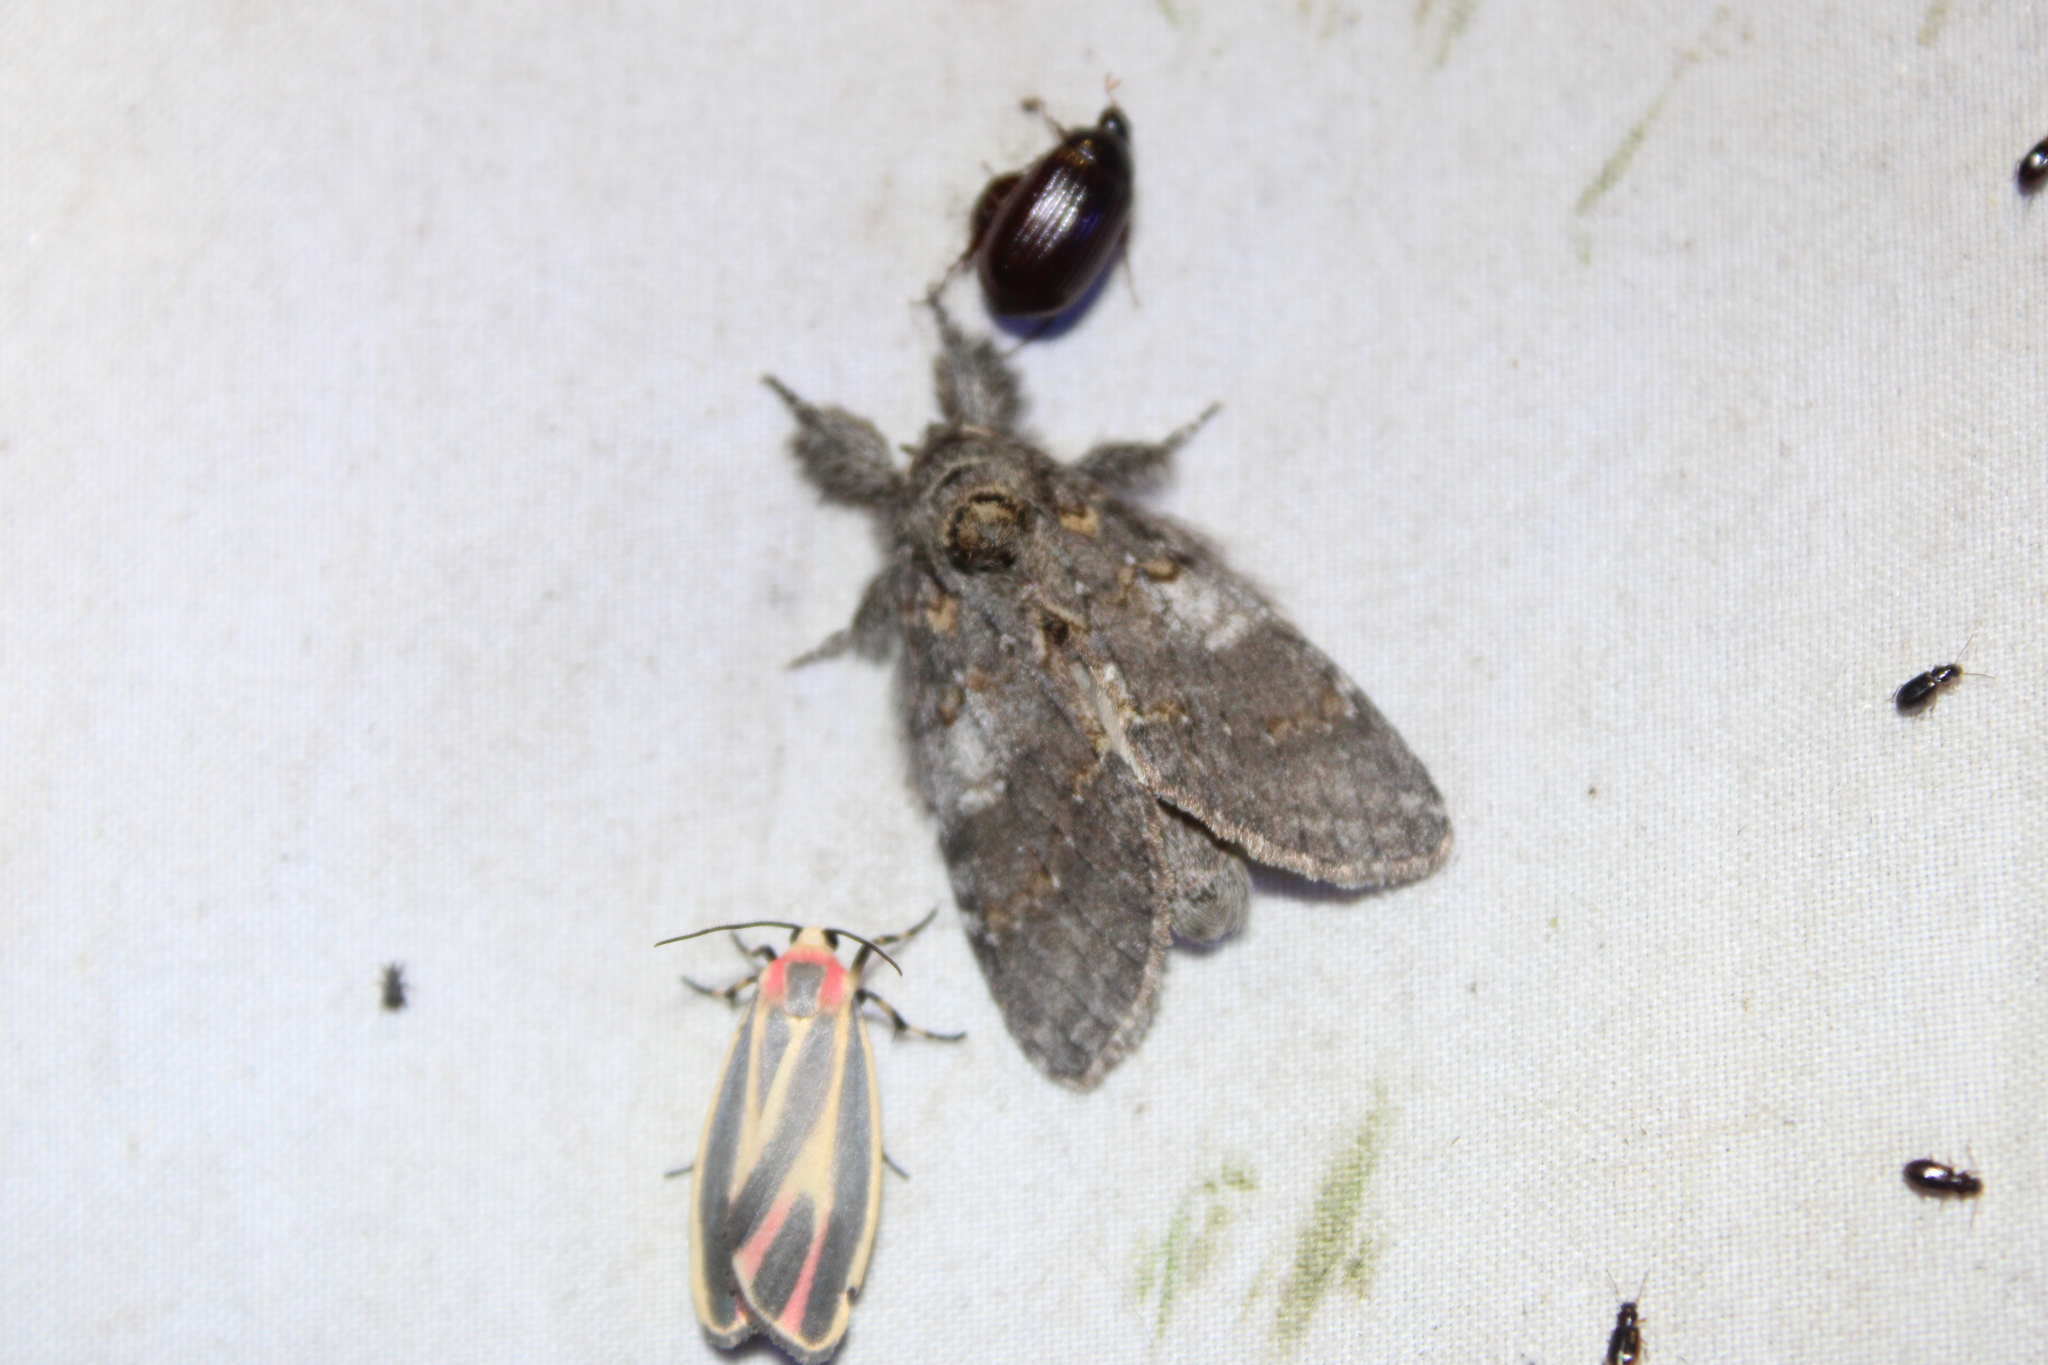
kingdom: Animalia
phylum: Arthropoda
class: Insecta
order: Lepidoptera
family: Notodontidae
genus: Peridea
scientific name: Peridea angulosa
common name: Angulose prominent
